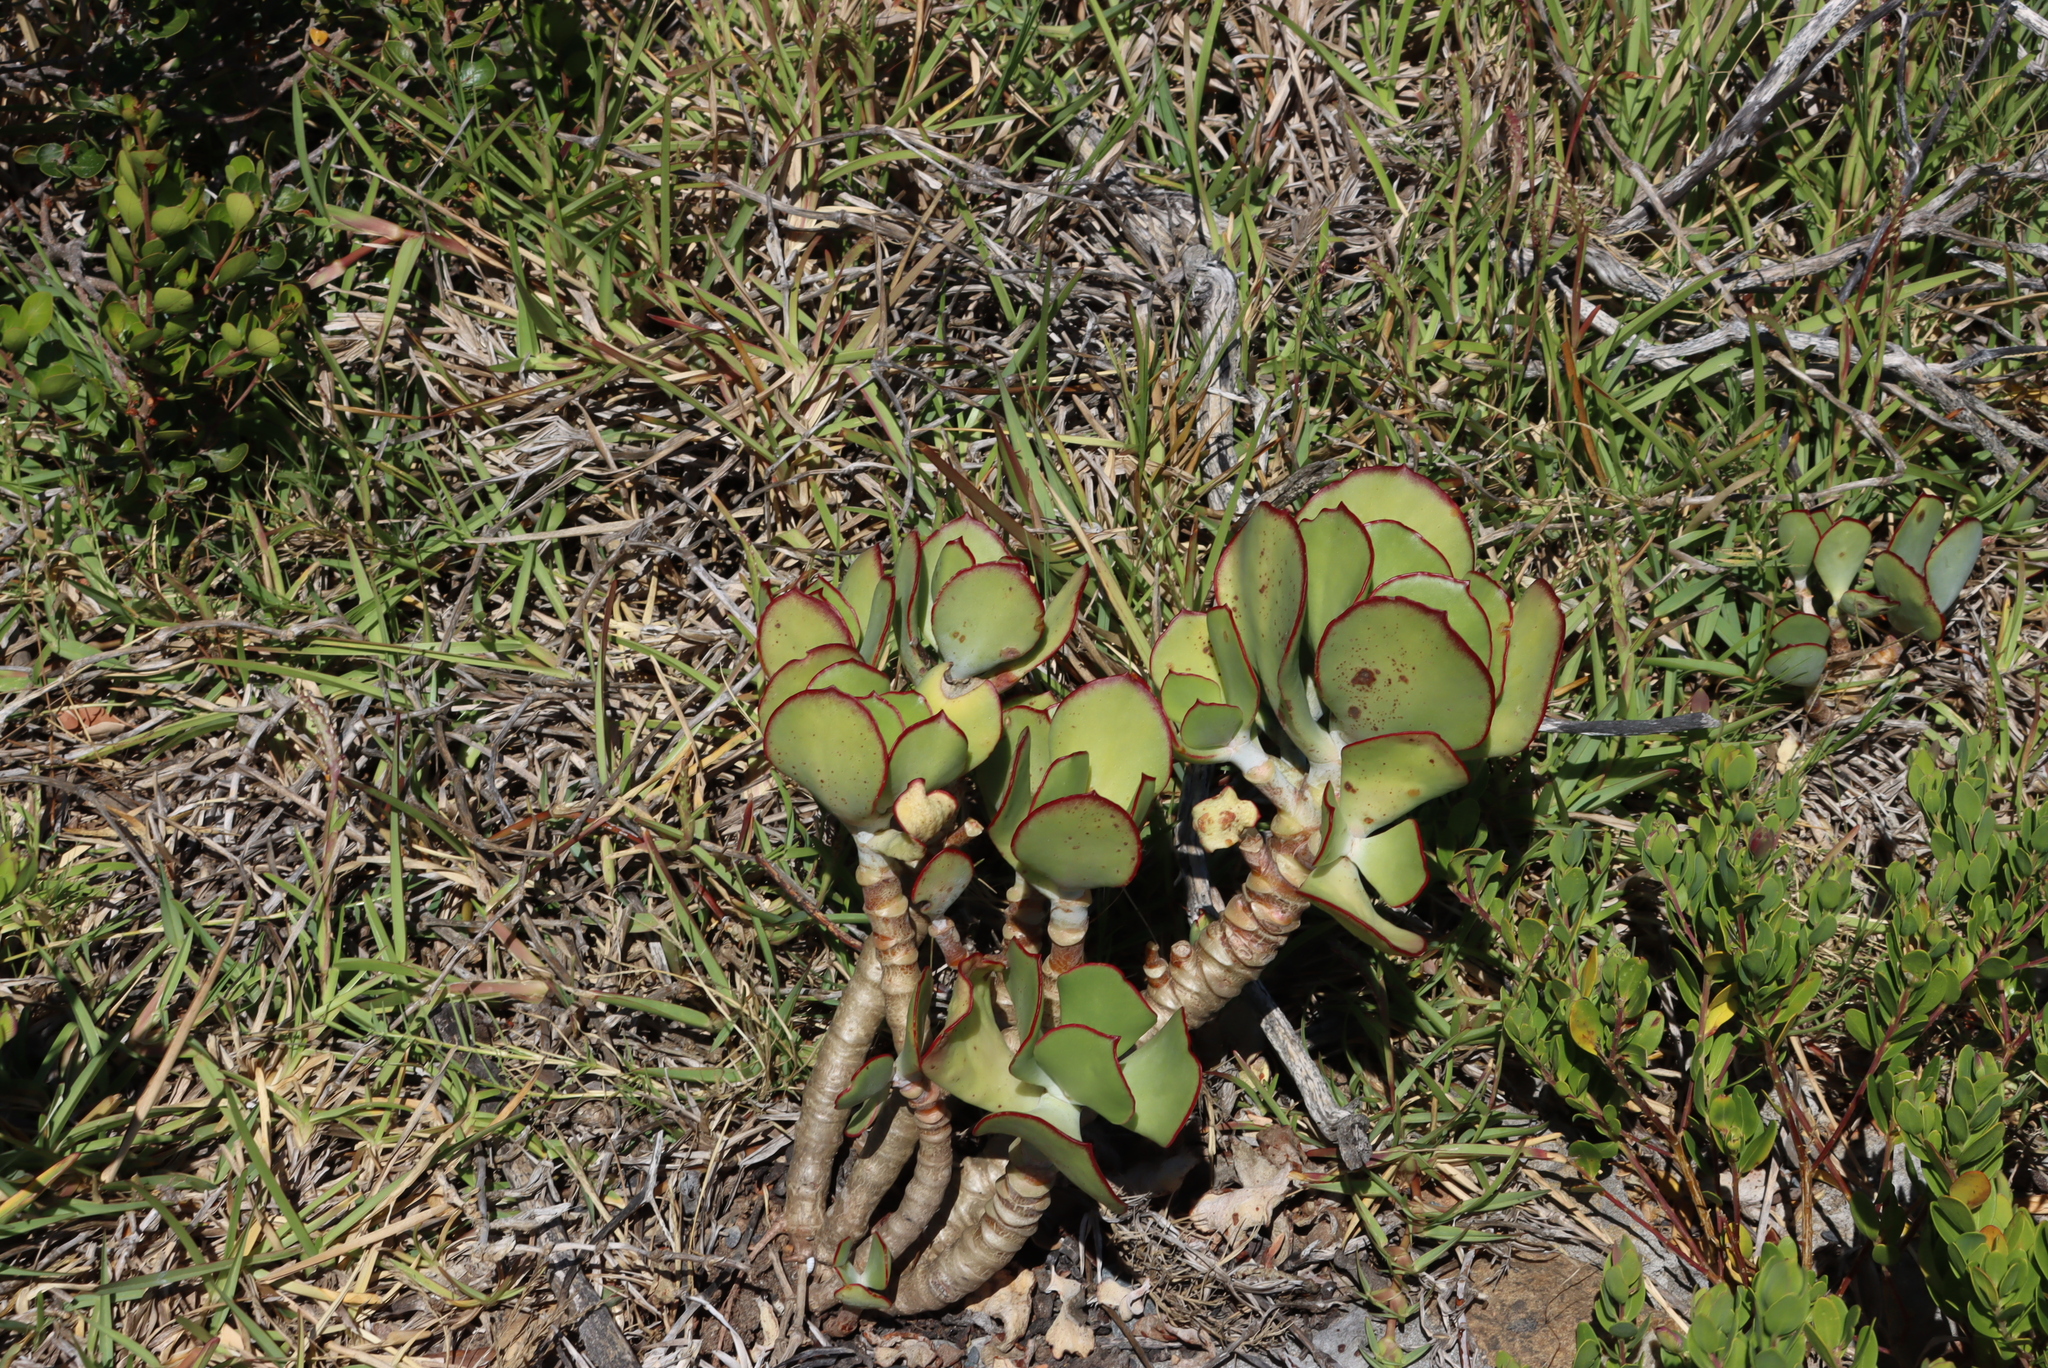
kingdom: Plantae
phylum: Tracheophyta
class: Magnoliopsida
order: Saxifragales
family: Crassulaceae
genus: Cotyledon
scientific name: Cotyledon orbiculata
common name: Pig's ear
